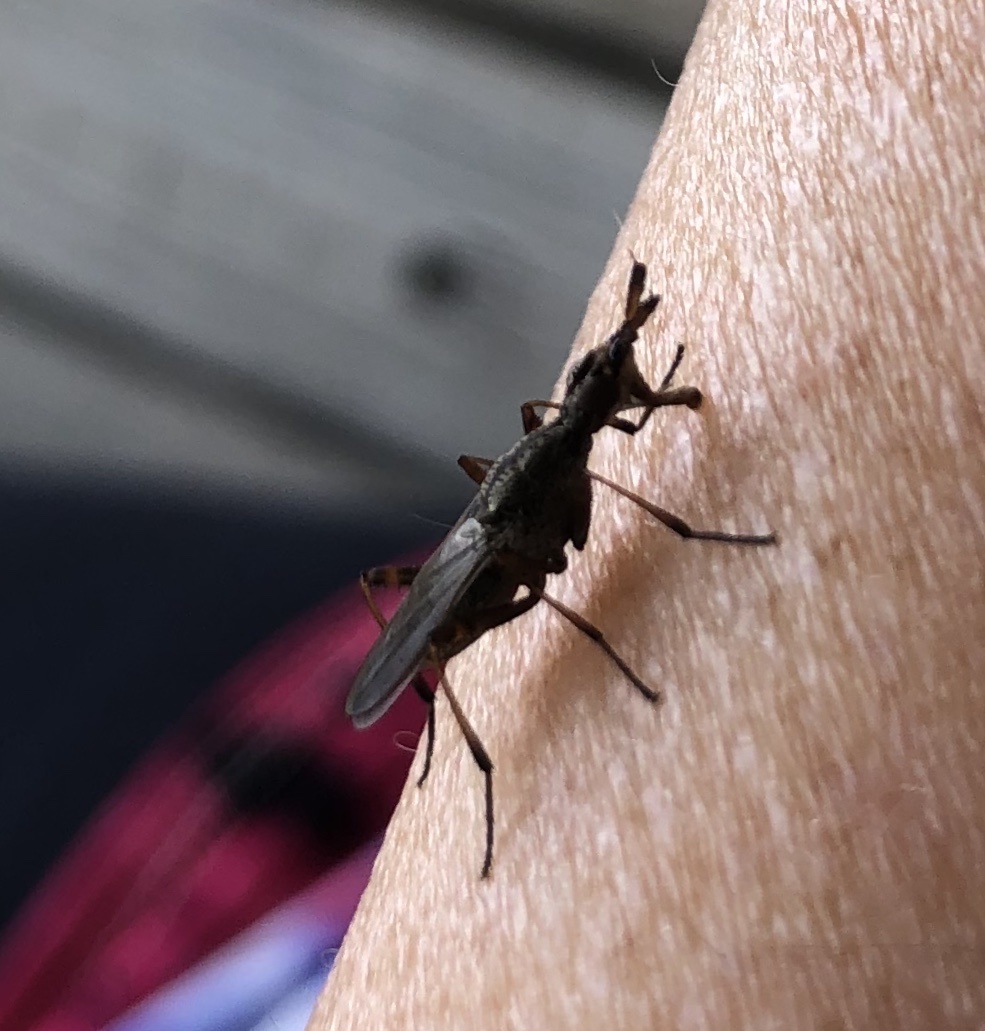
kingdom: Animalia
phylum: Arthropoda
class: Insecta
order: Diptera
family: Neriidae
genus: Odontoloxozus
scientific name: Odontoloxozus longicornis
